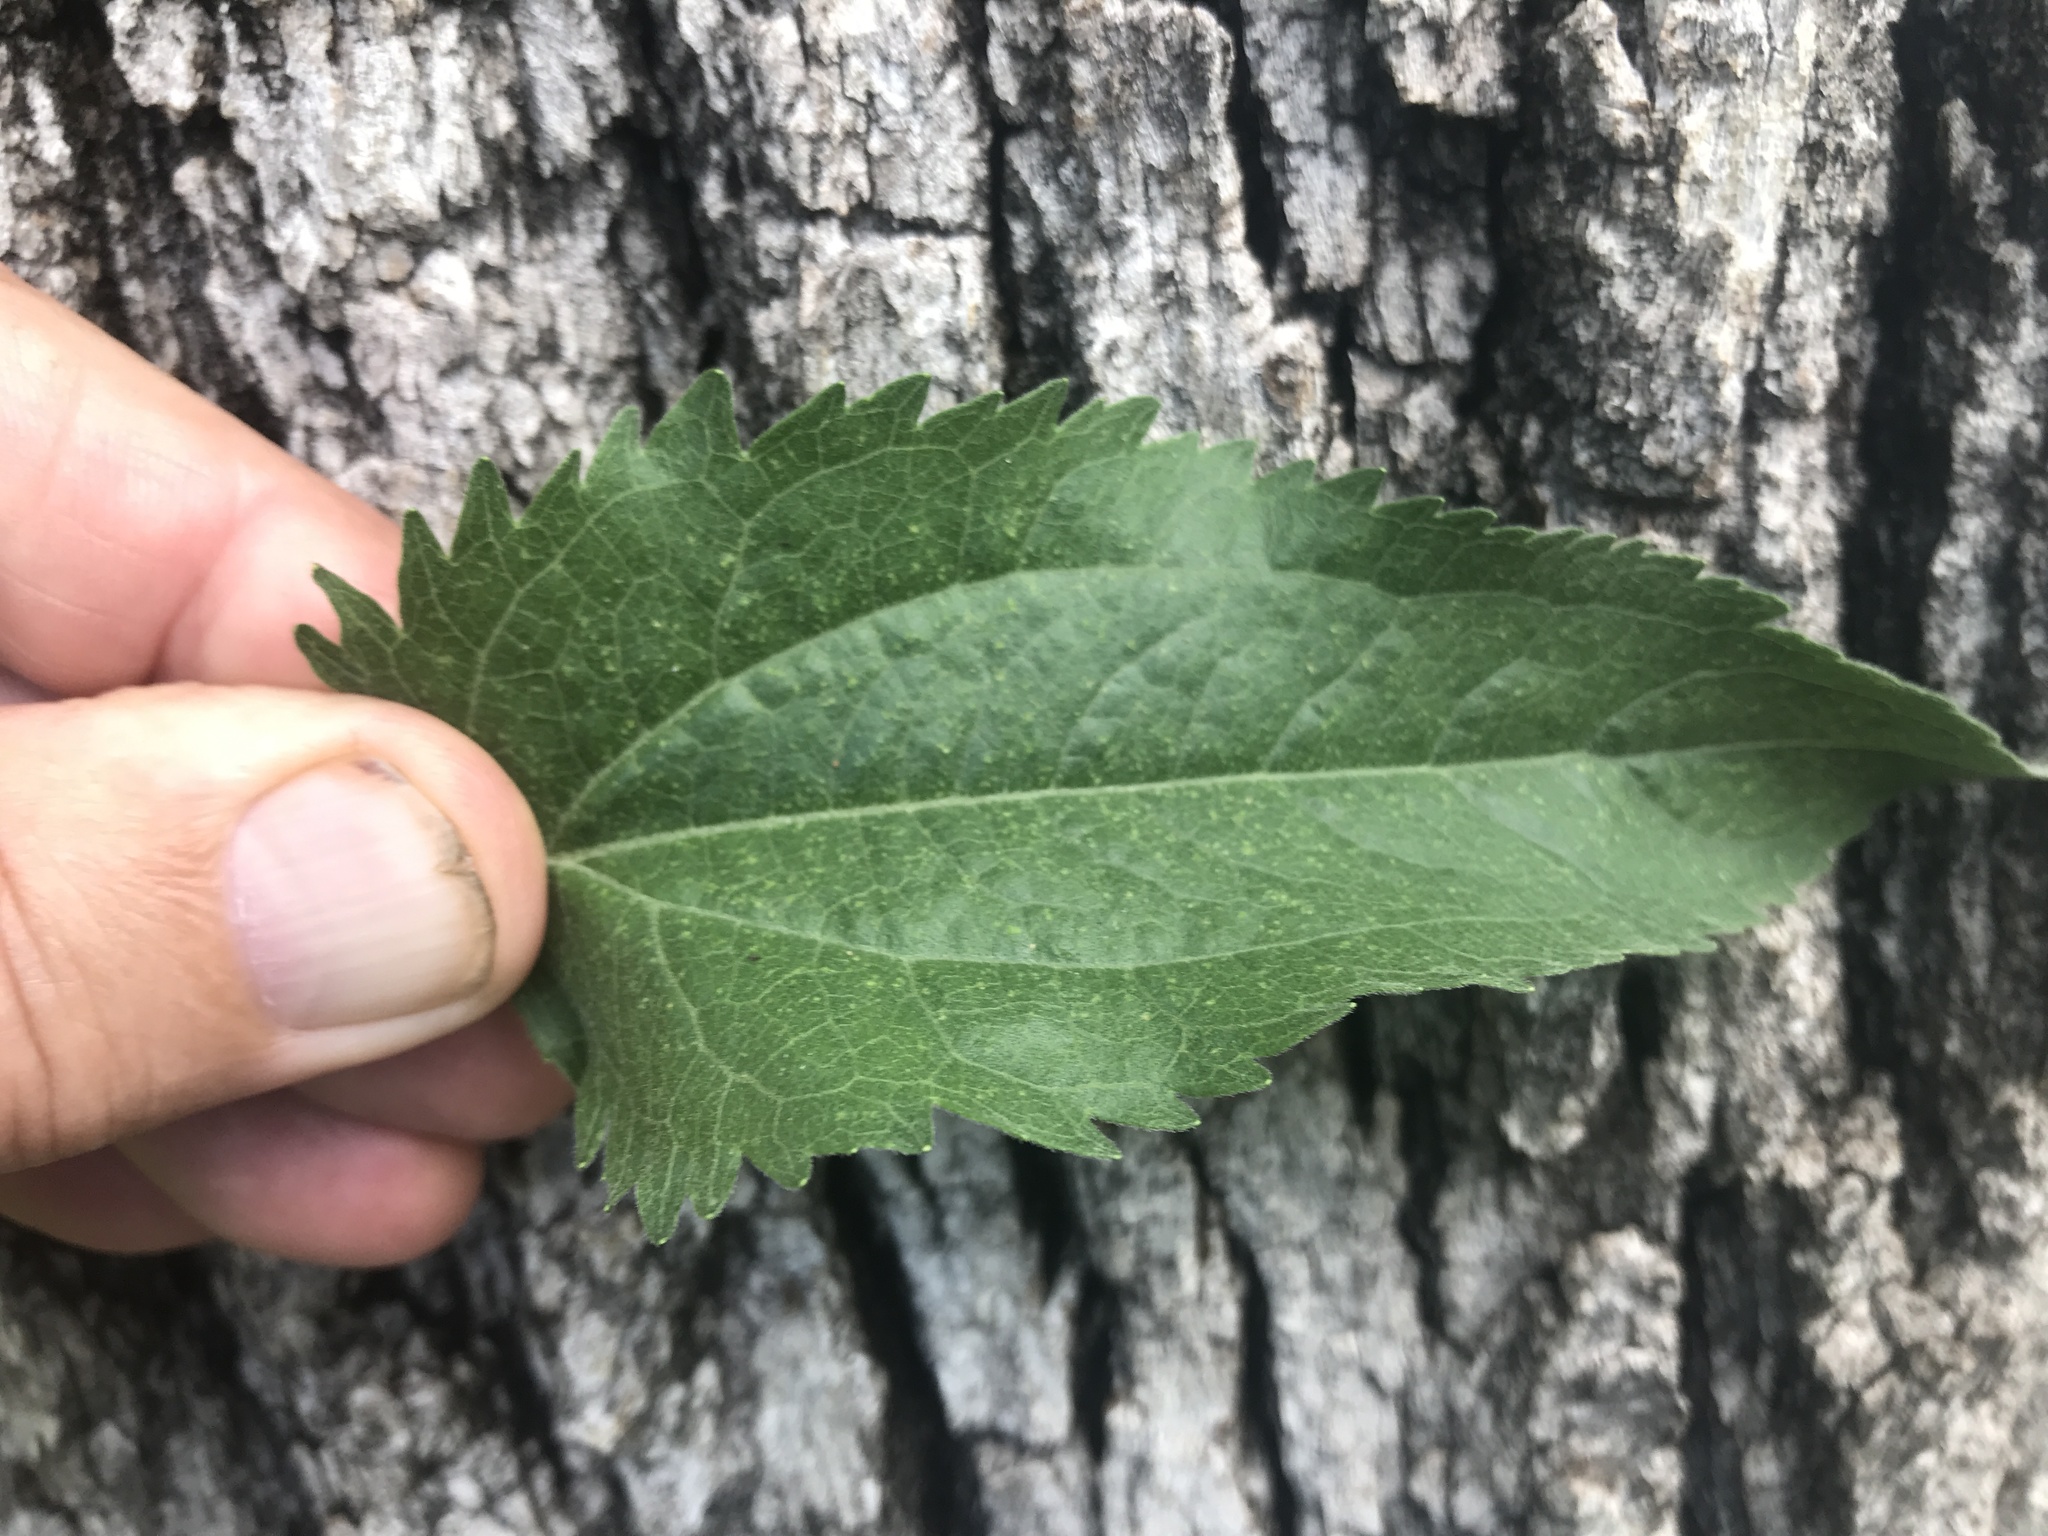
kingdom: Plantae
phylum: Tracheophyta
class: Magnoliopsida
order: Asterales
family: Asteraceae
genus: Eupatorium
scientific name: Eupatorium serotinum
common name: Late boneset
